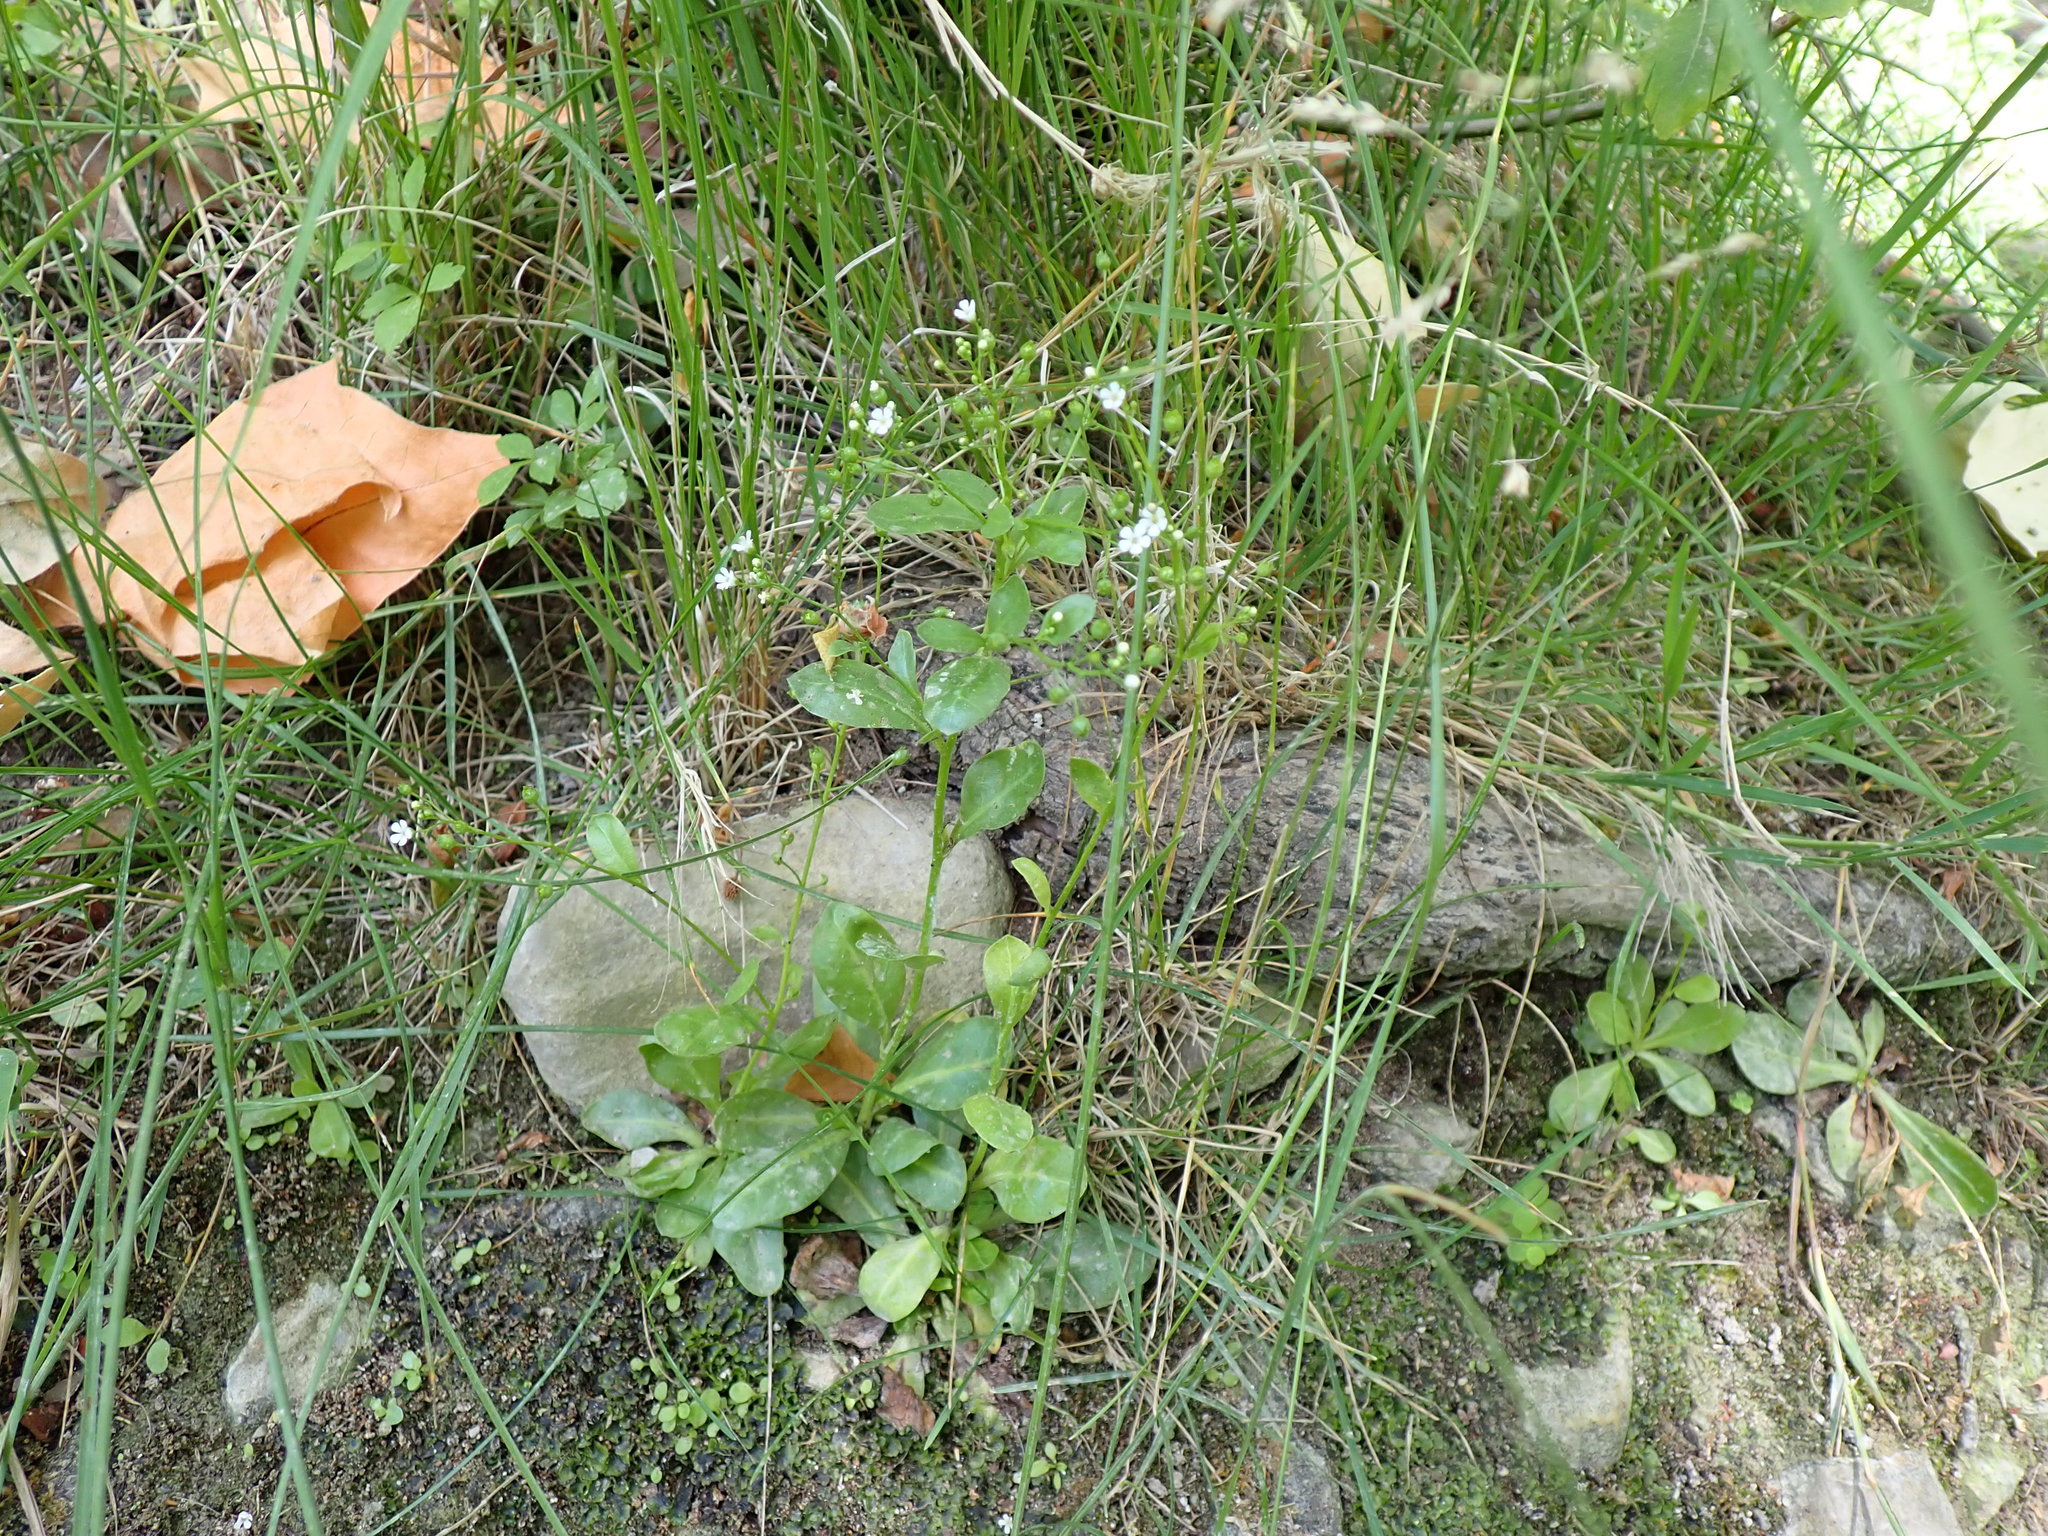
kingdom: Plantae
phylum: Tracheophyta
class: Magnoliopsida
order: Ericales
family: Primulaceae
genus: Samolus
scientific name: Samolus valerandi
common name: Brookweed
